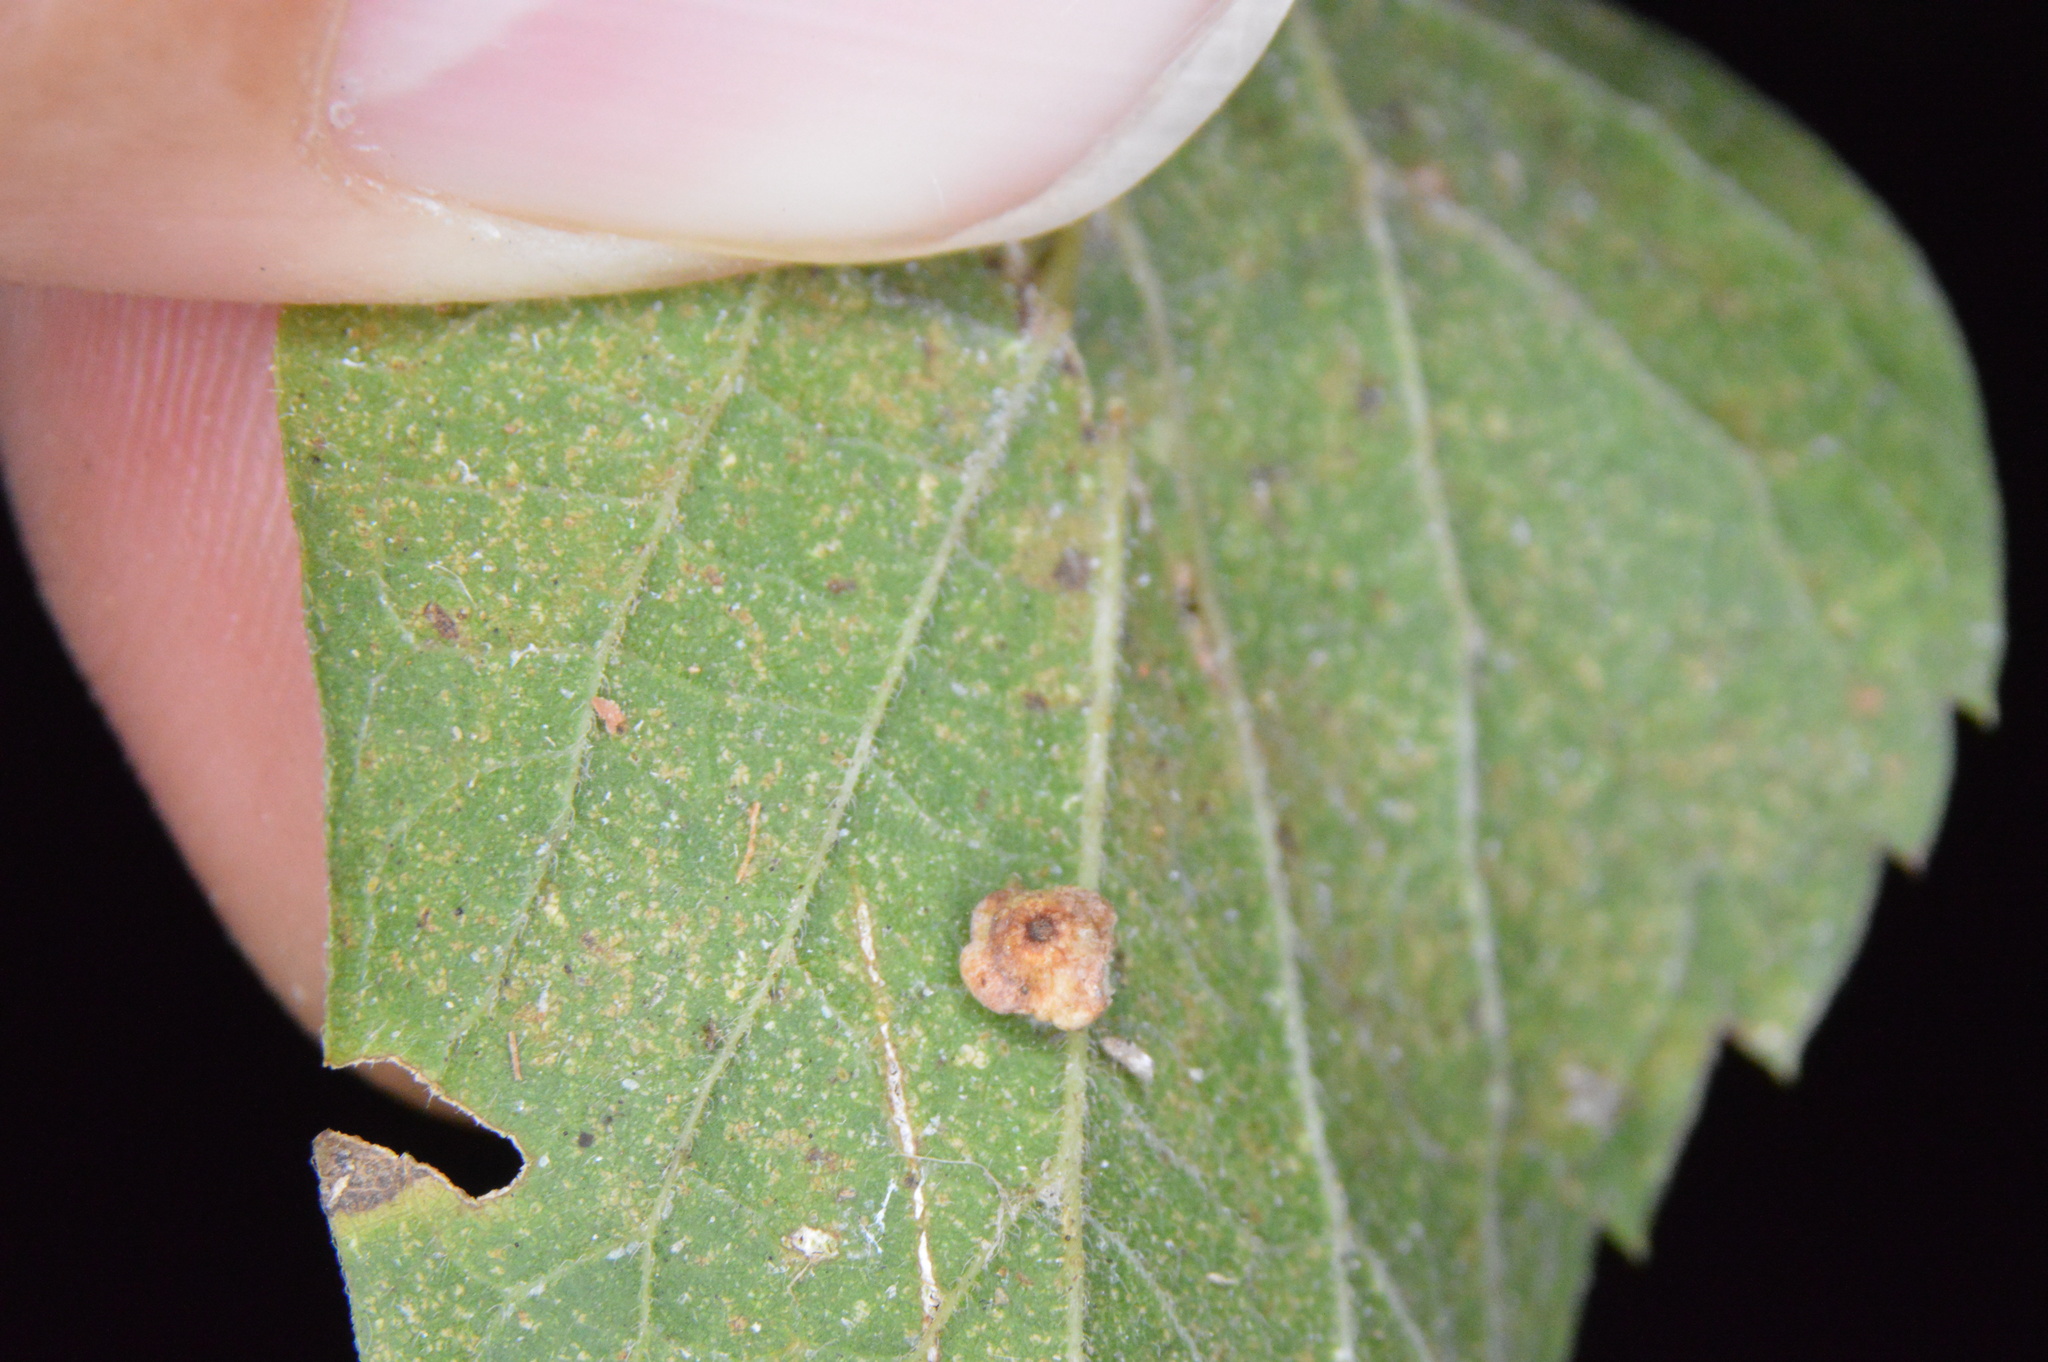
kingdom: Animalia
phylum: Arthropoda
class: Insecta
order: Diptera
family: Cecidomyiidae
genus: Celticecis
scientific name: Celticecis globosa
